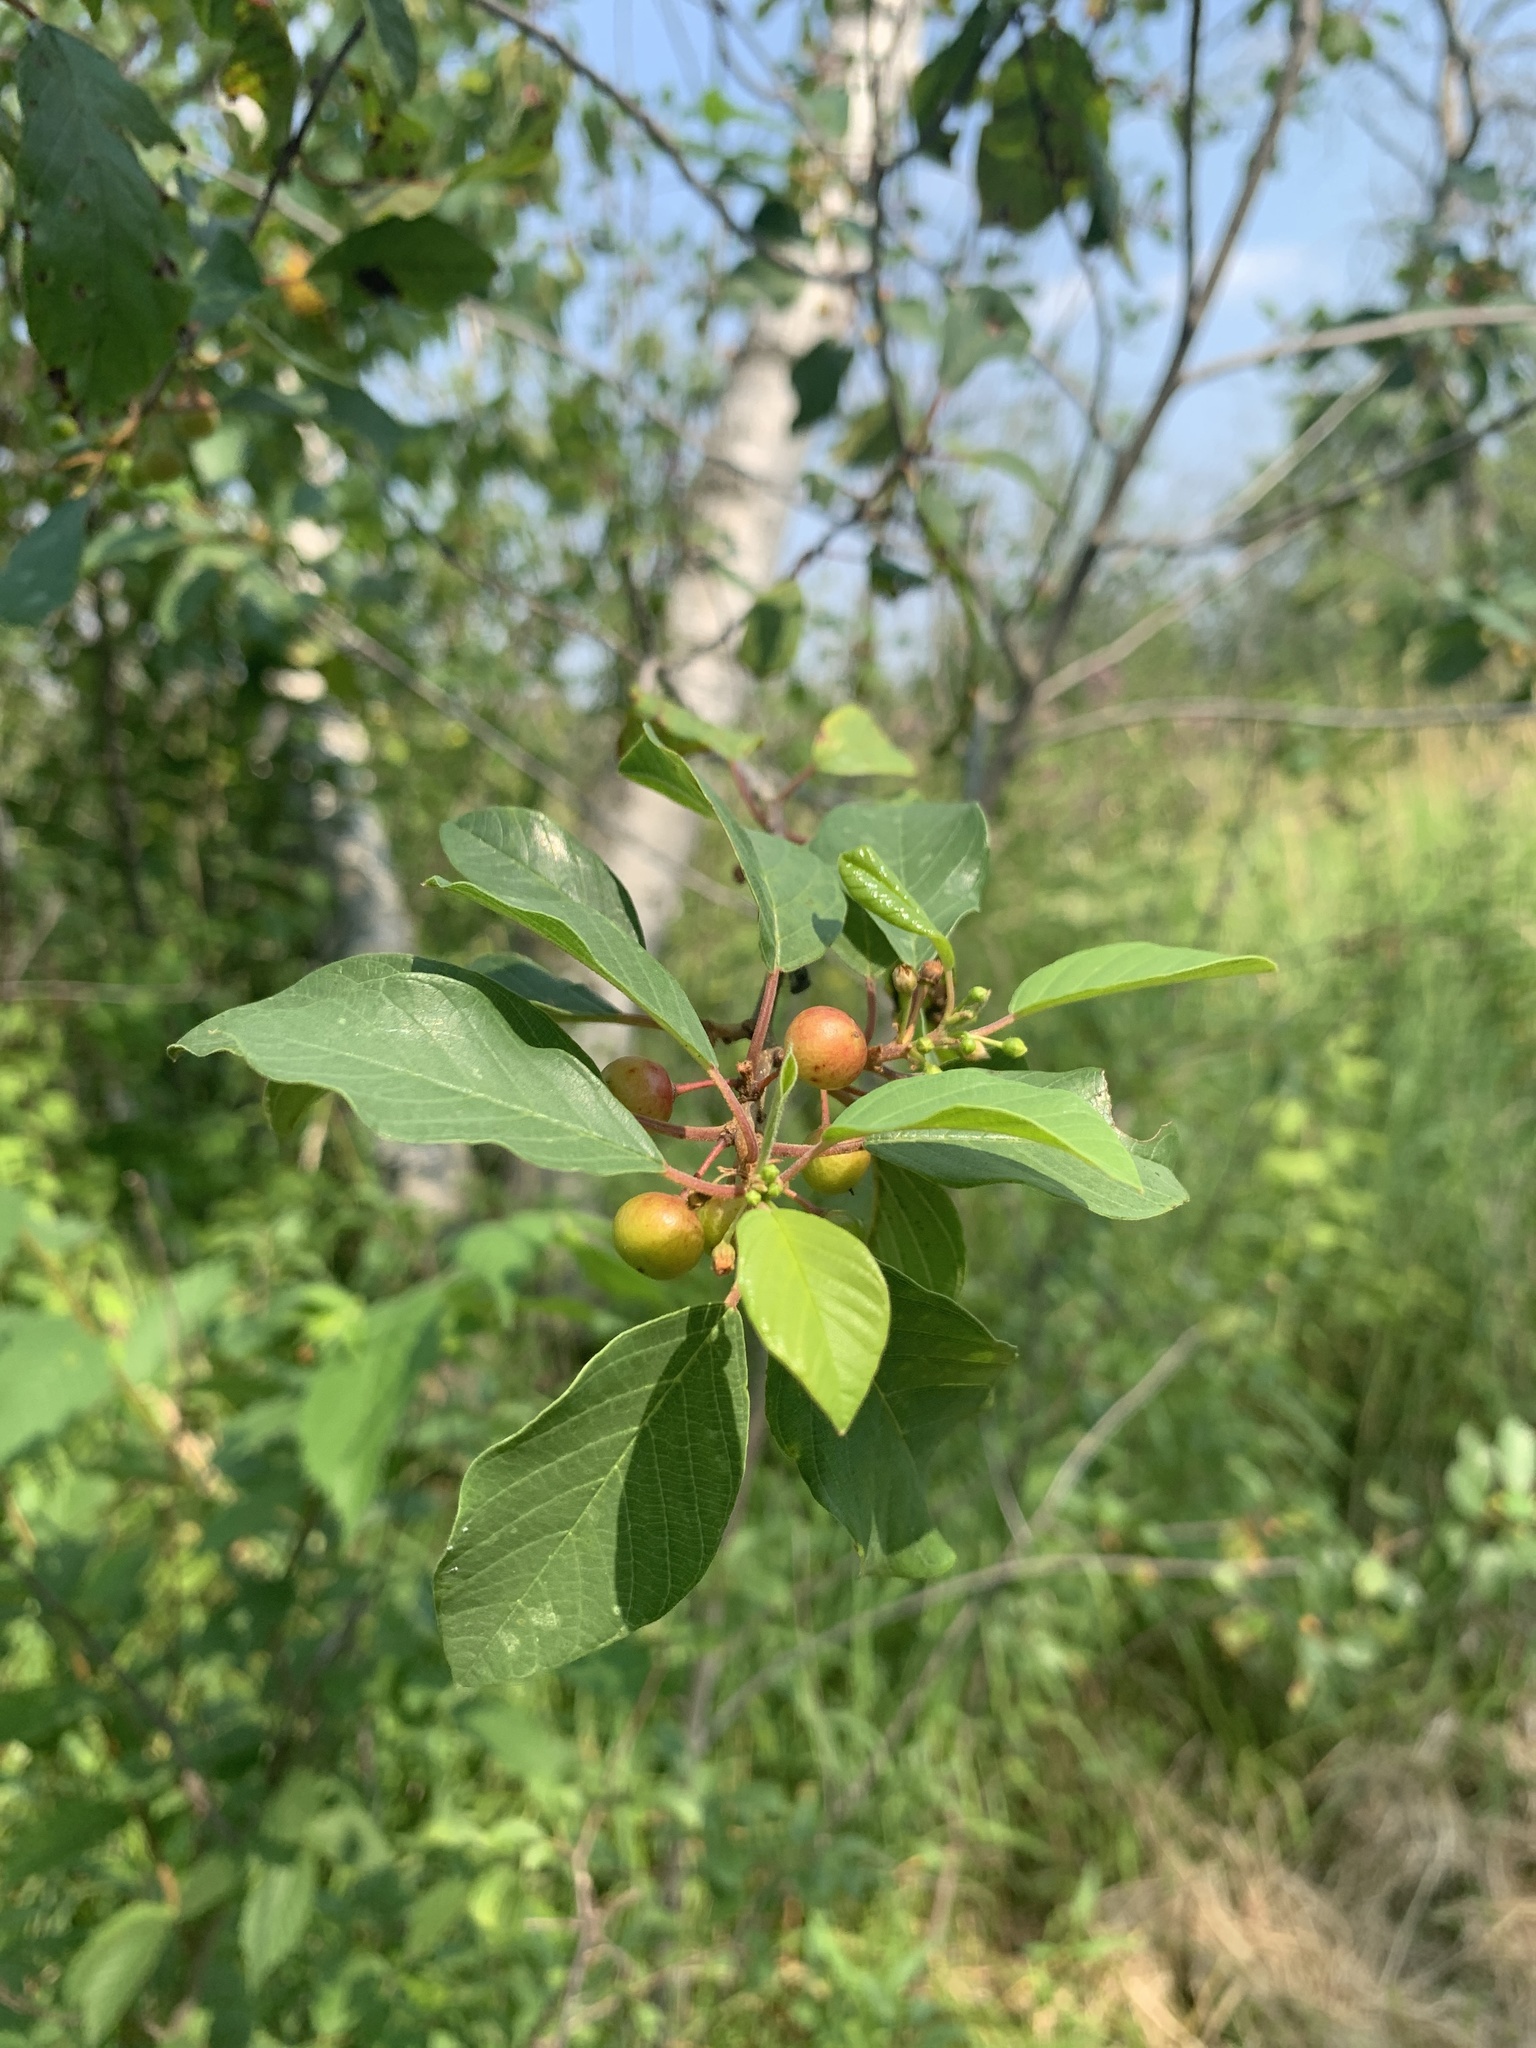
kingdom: Plantae
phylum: Tracheophyta
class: Magnoliopsida
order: Rosales
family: Rhamnaceae
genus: Frangula
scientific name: Frangula alnus
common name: Alder buckthorn
